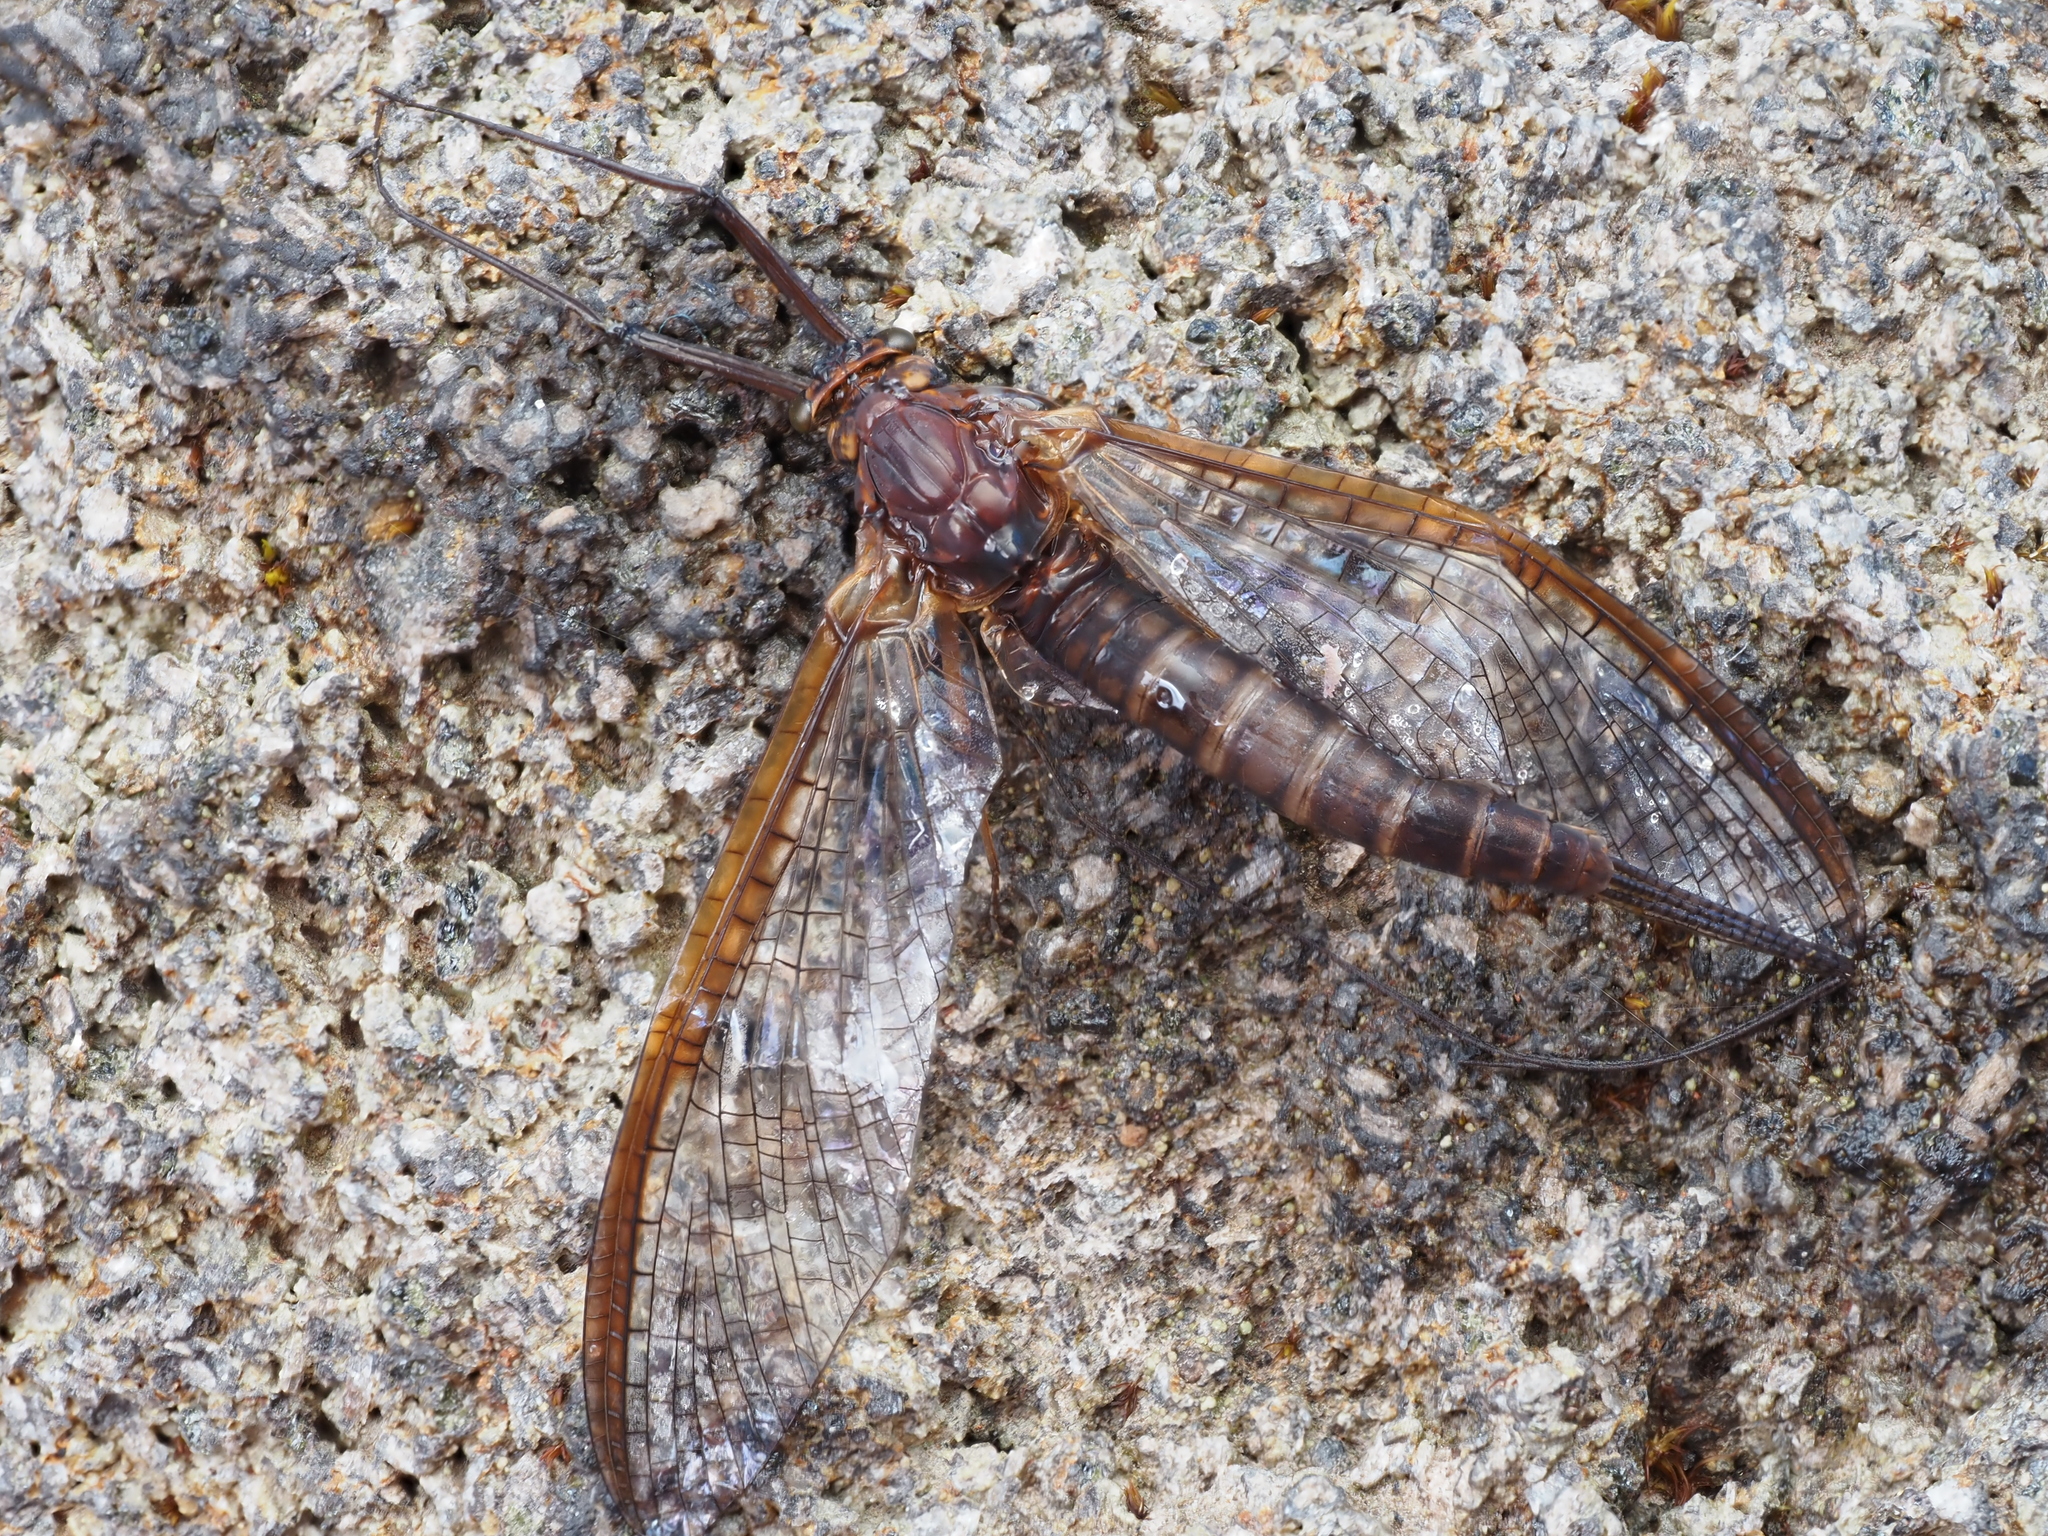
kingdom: Animalia
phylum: Arthropoda
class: Insecta
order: Ephemeroptera
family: Leptophlebiidae
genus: Deleatidium
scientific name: Deleatidium magnum
